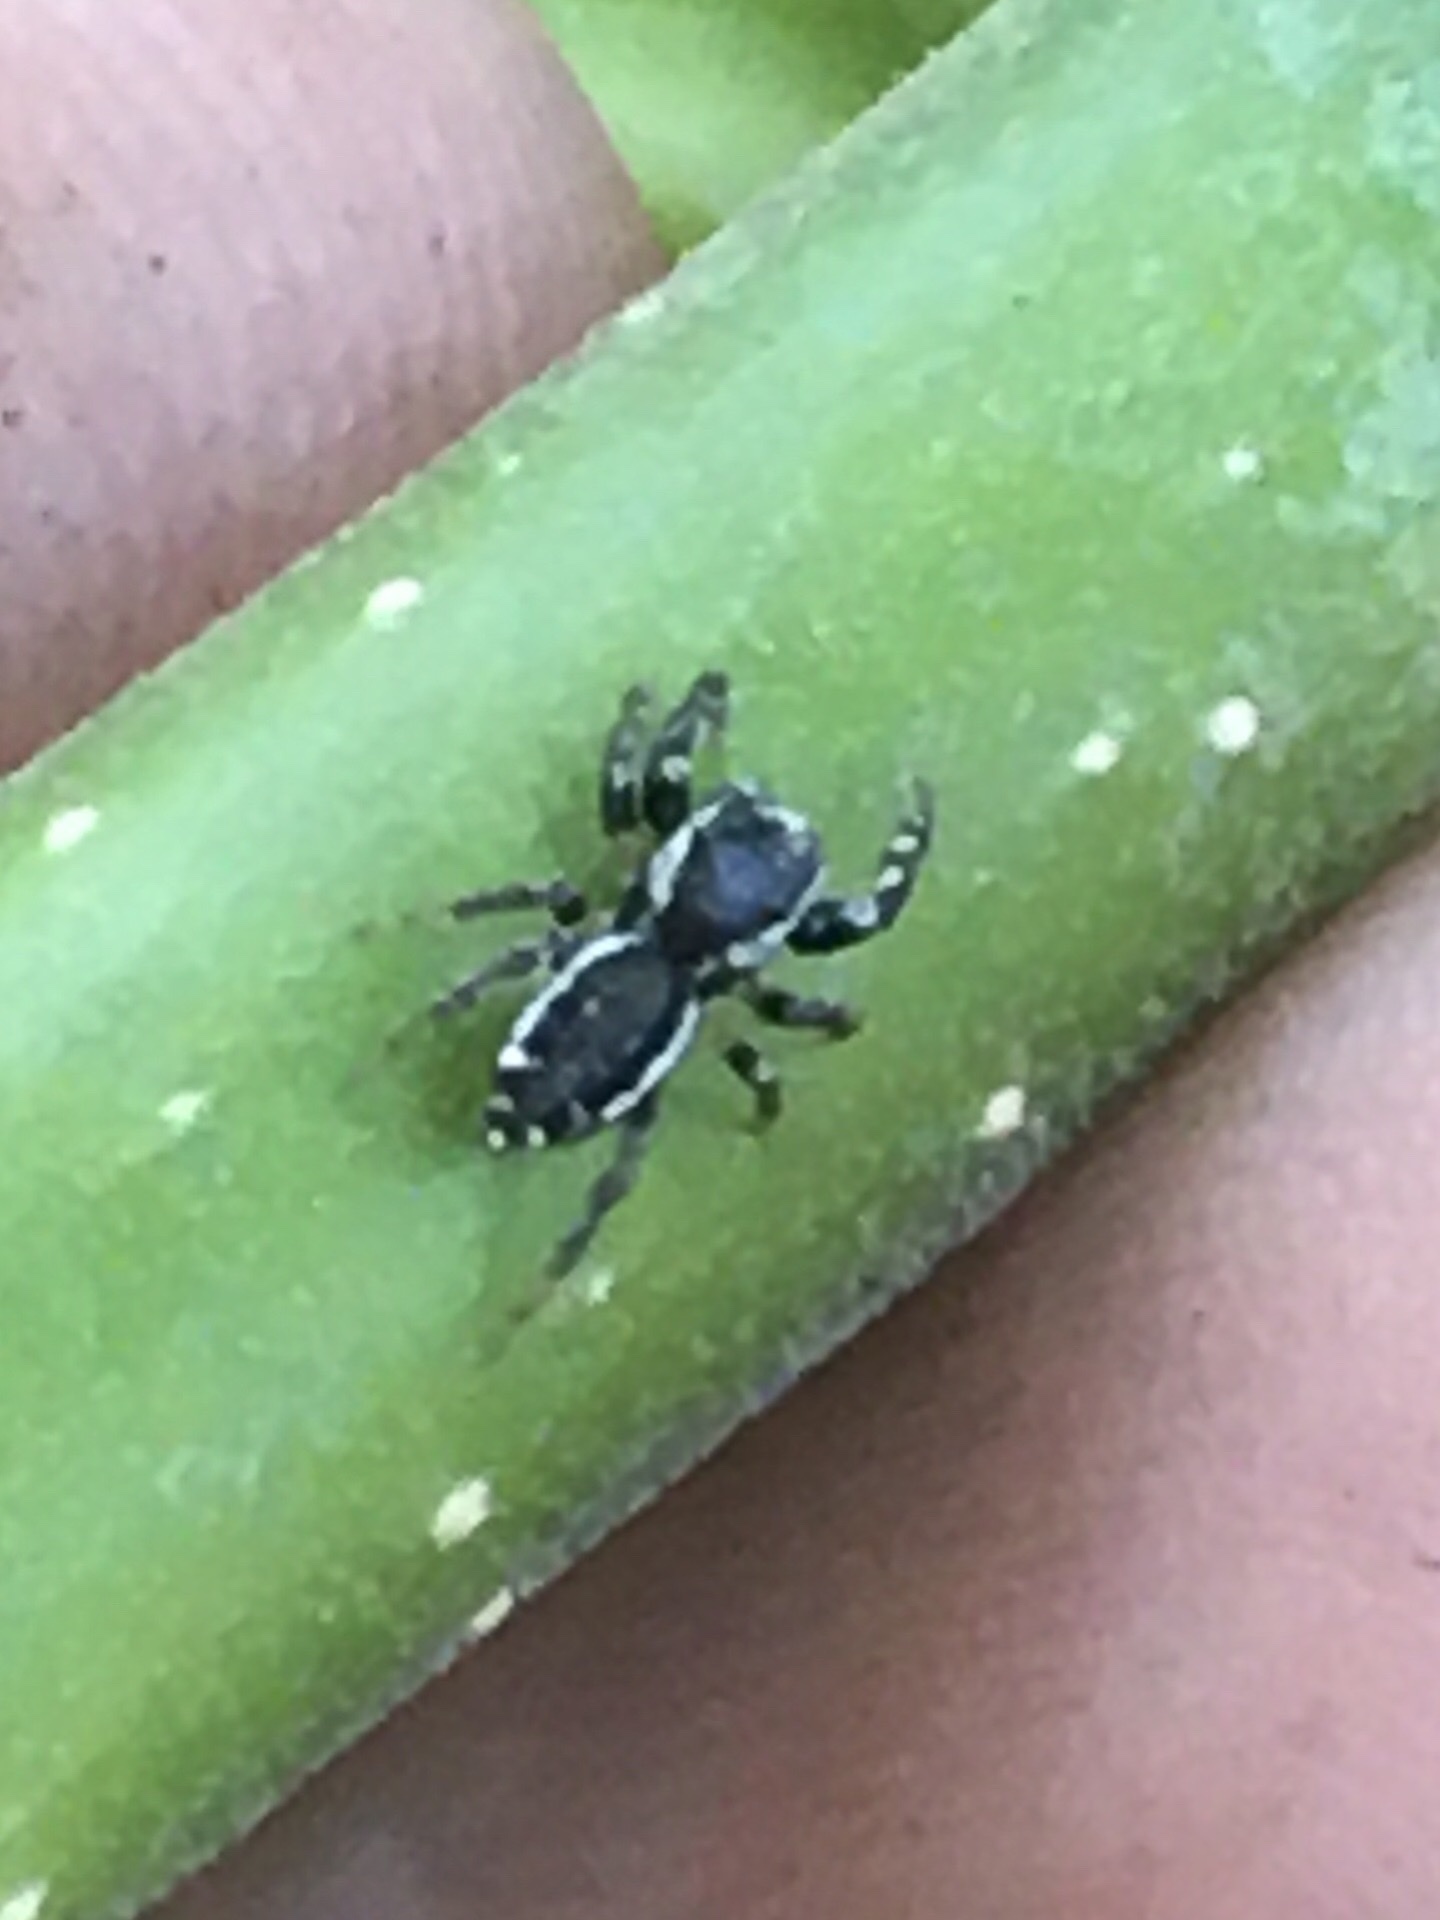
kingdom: Animalia
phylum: Arthropoda
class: Arachnida
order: Araneae
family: Salticidae
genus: Pelegrina
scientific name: Pelegrina proterva
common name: Common white-cheeked jumping spider
